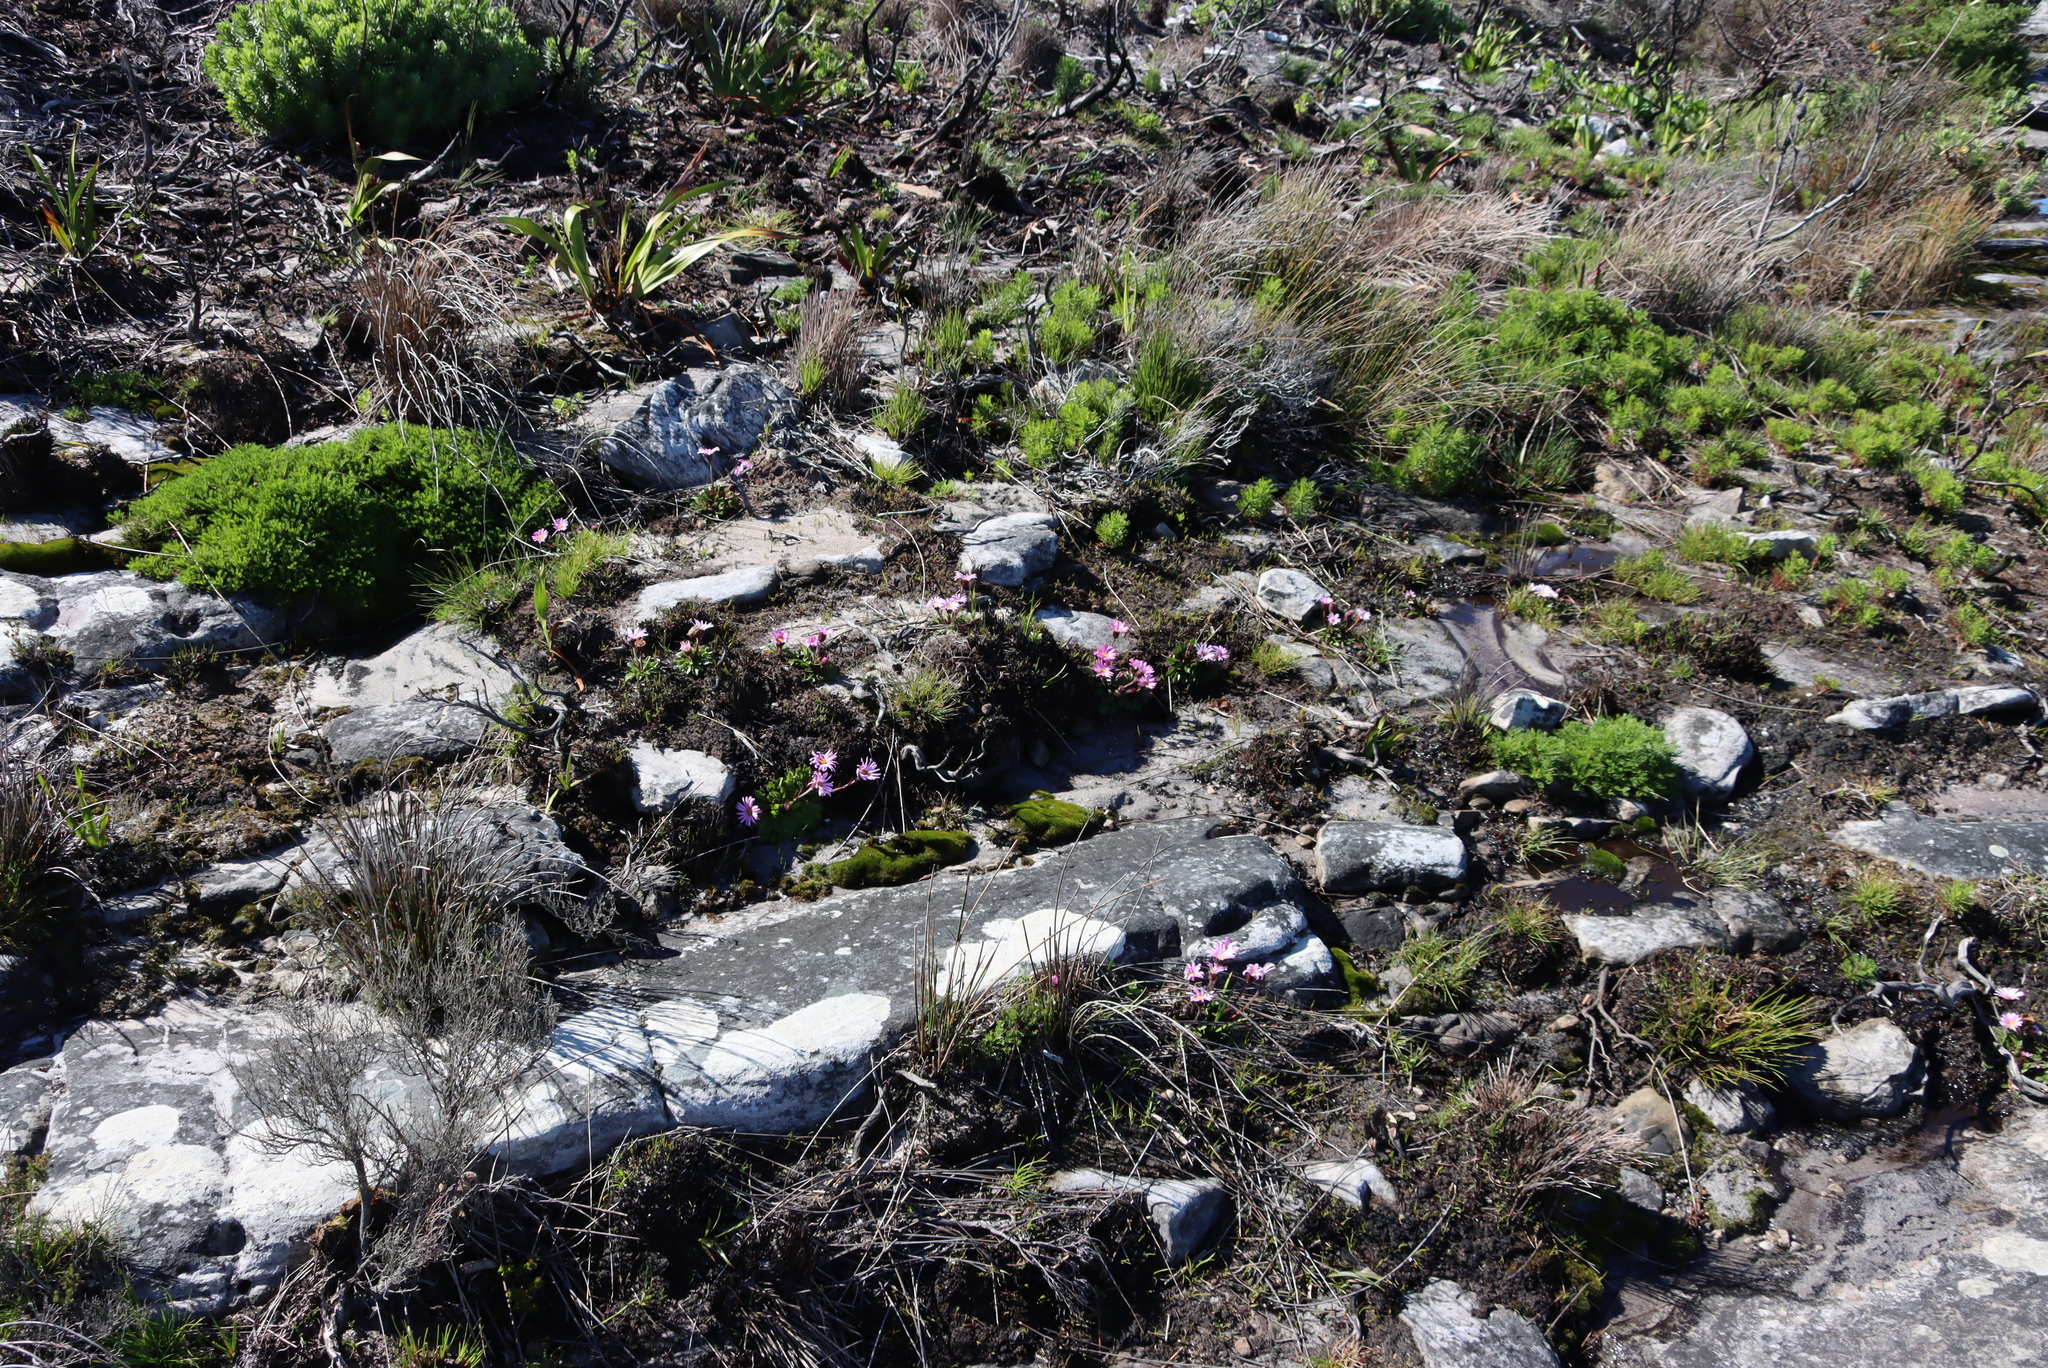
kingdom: Plantae
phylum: Tracheophyta
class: Magnoliopsida
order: Asterales
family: Asteraceae
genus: Zyrphelis
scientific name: Zyrphelis crenata
